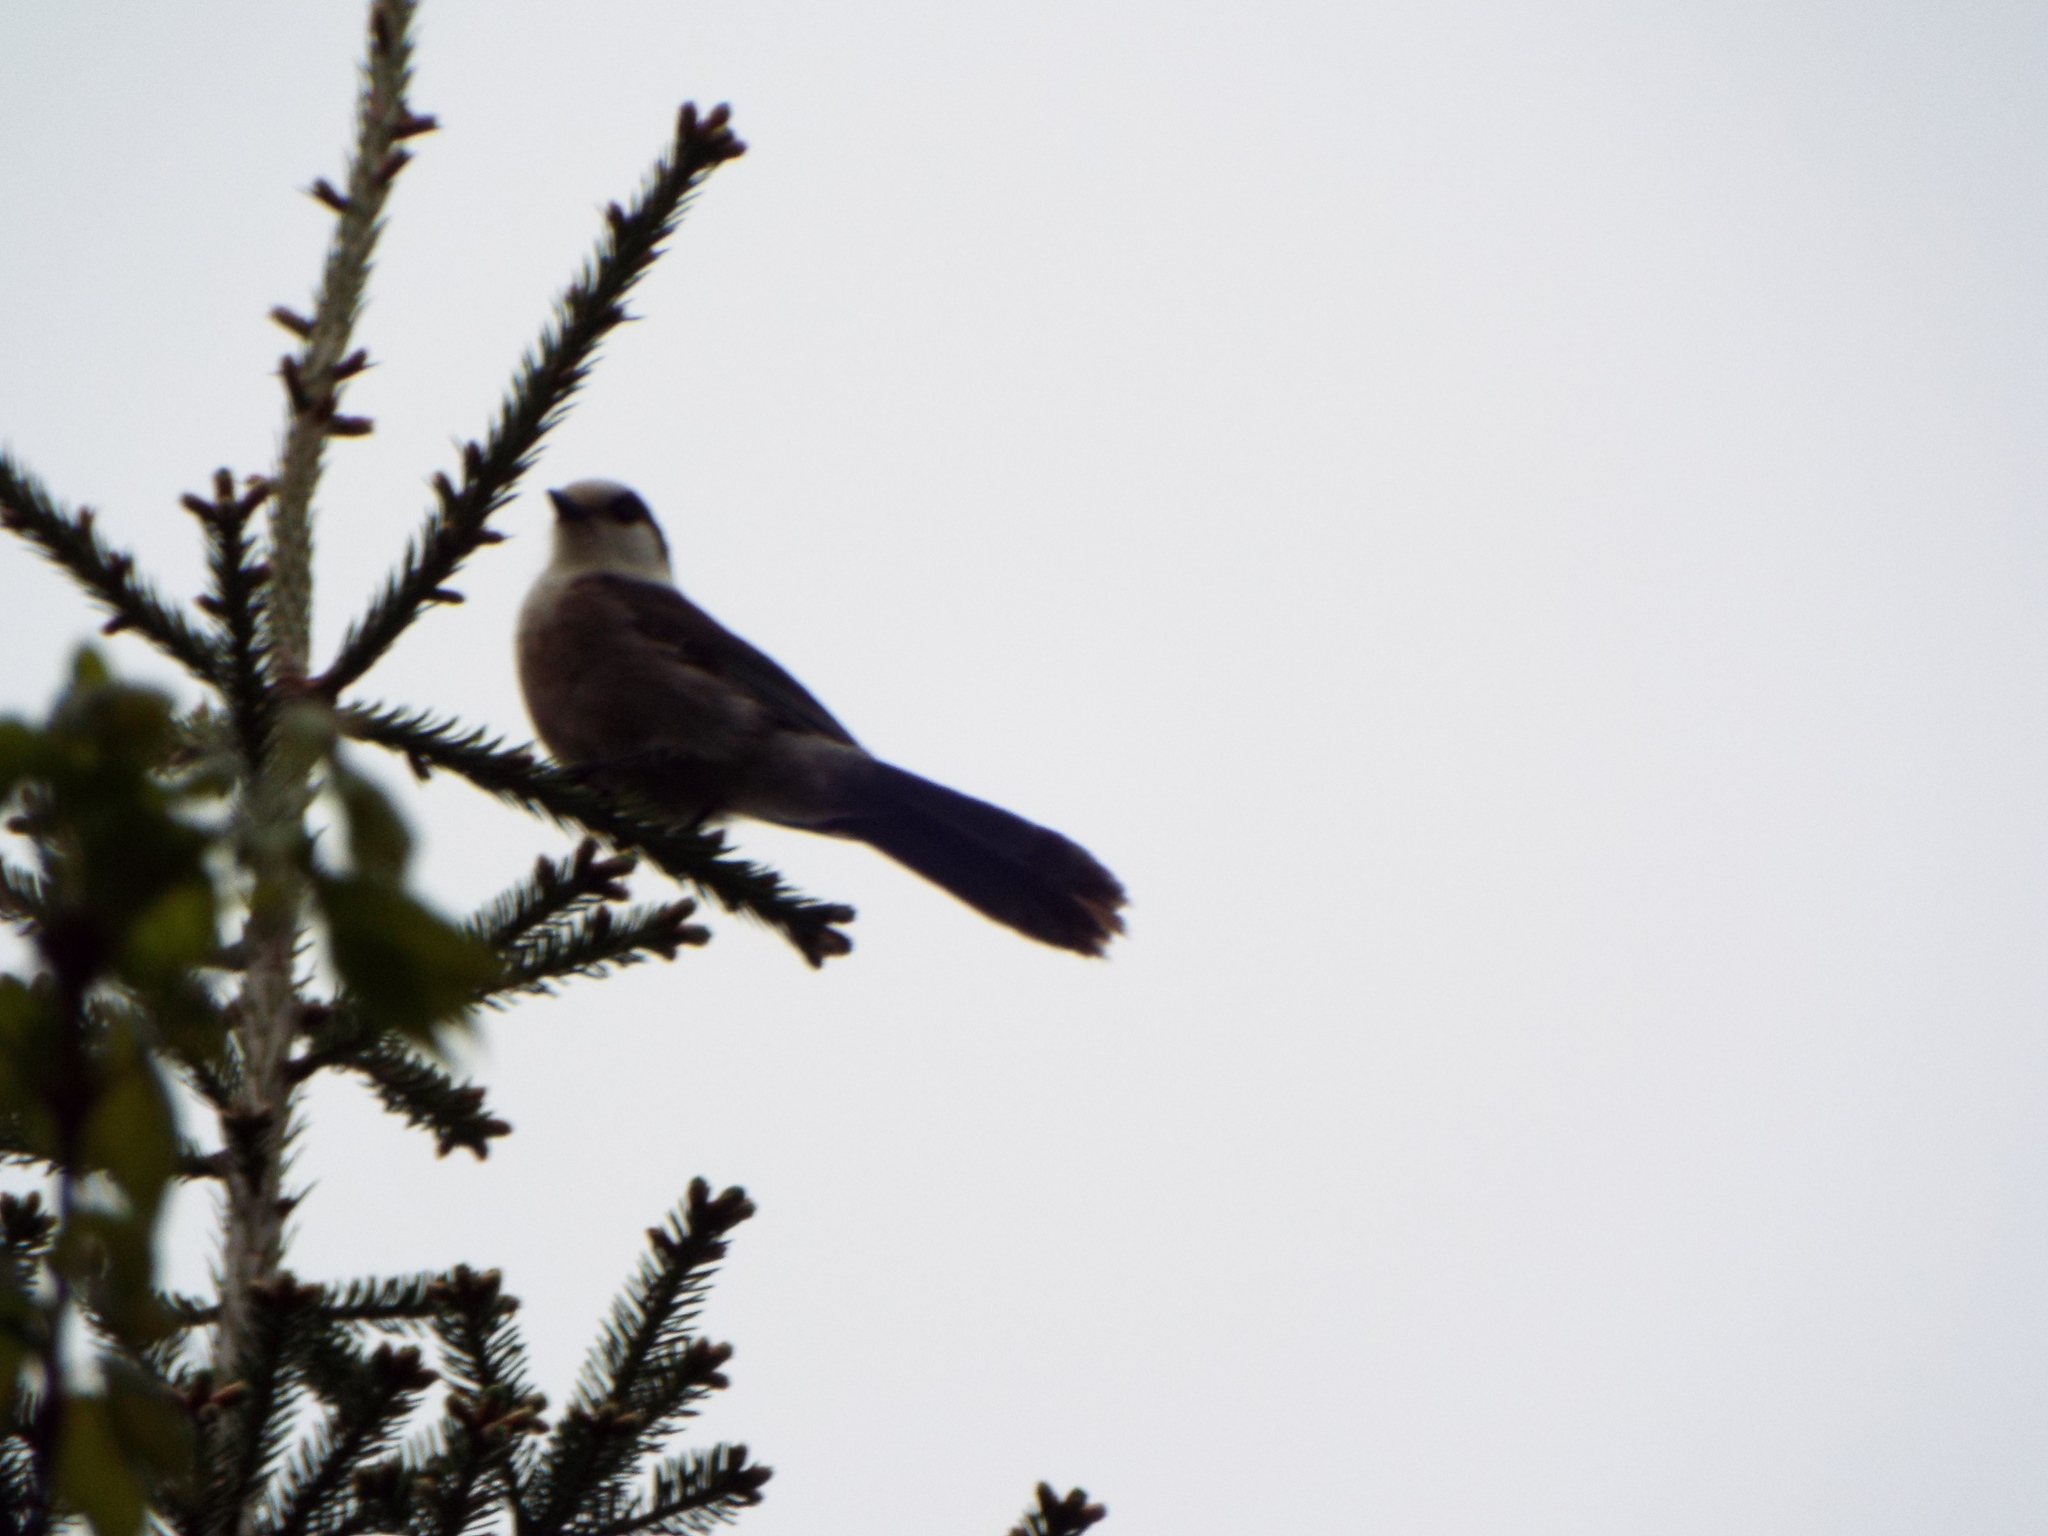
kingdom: Animalia
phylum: Chordata
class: Aves
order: Passeriformes
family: Corvidae
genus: Perisoreus
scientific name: Perisoreus canadensis
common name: Gray jay
